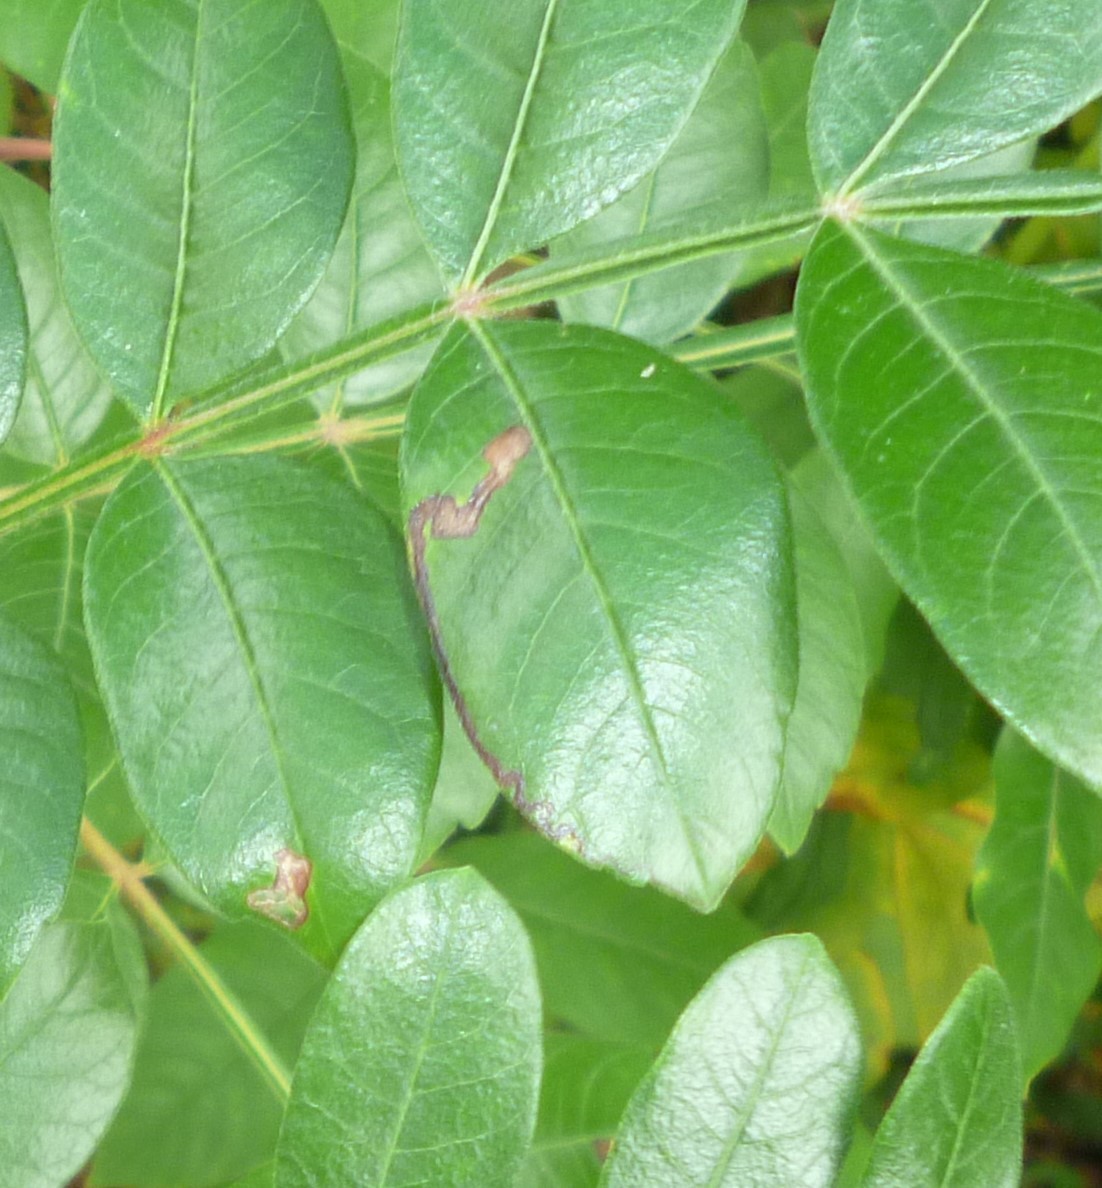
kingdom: Animalia
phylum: Arthropoda
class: Insecta
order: Lepidoptera
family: Nepticulidae
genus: Stigmella
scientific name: Stigmella intermedia
